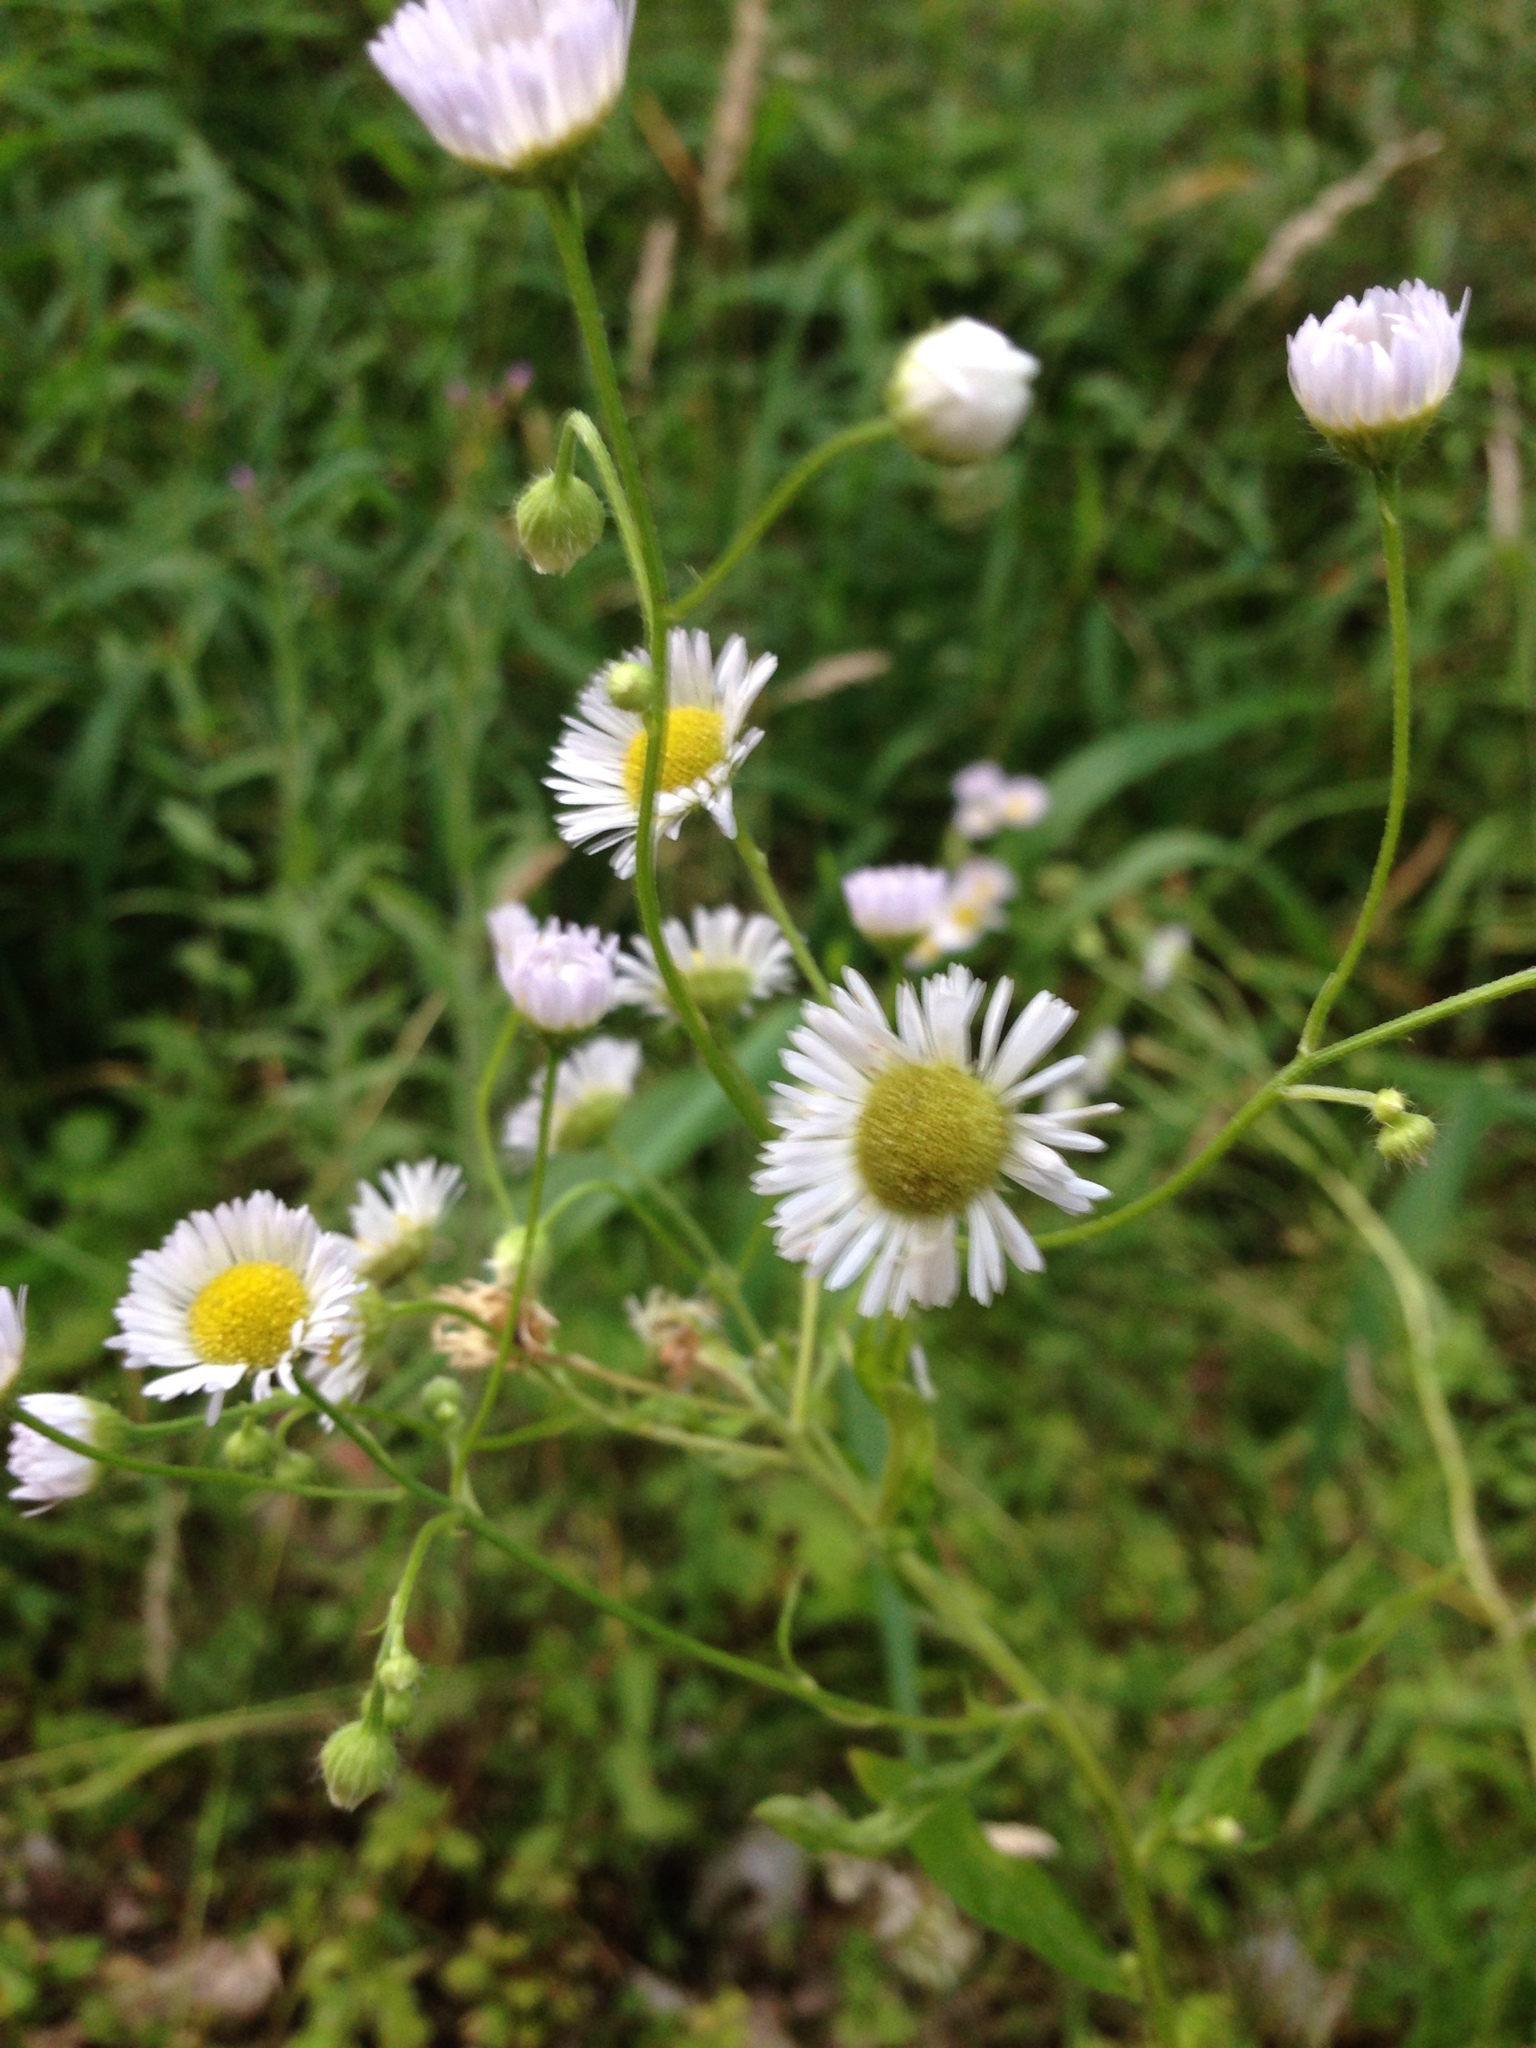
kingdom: Plantae
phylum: Tracheophyta
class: Magnoliopsida
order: Asterales
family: Asteraceae
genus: Erigeron
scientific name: Erigeron annuus
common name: Tall fleabane
